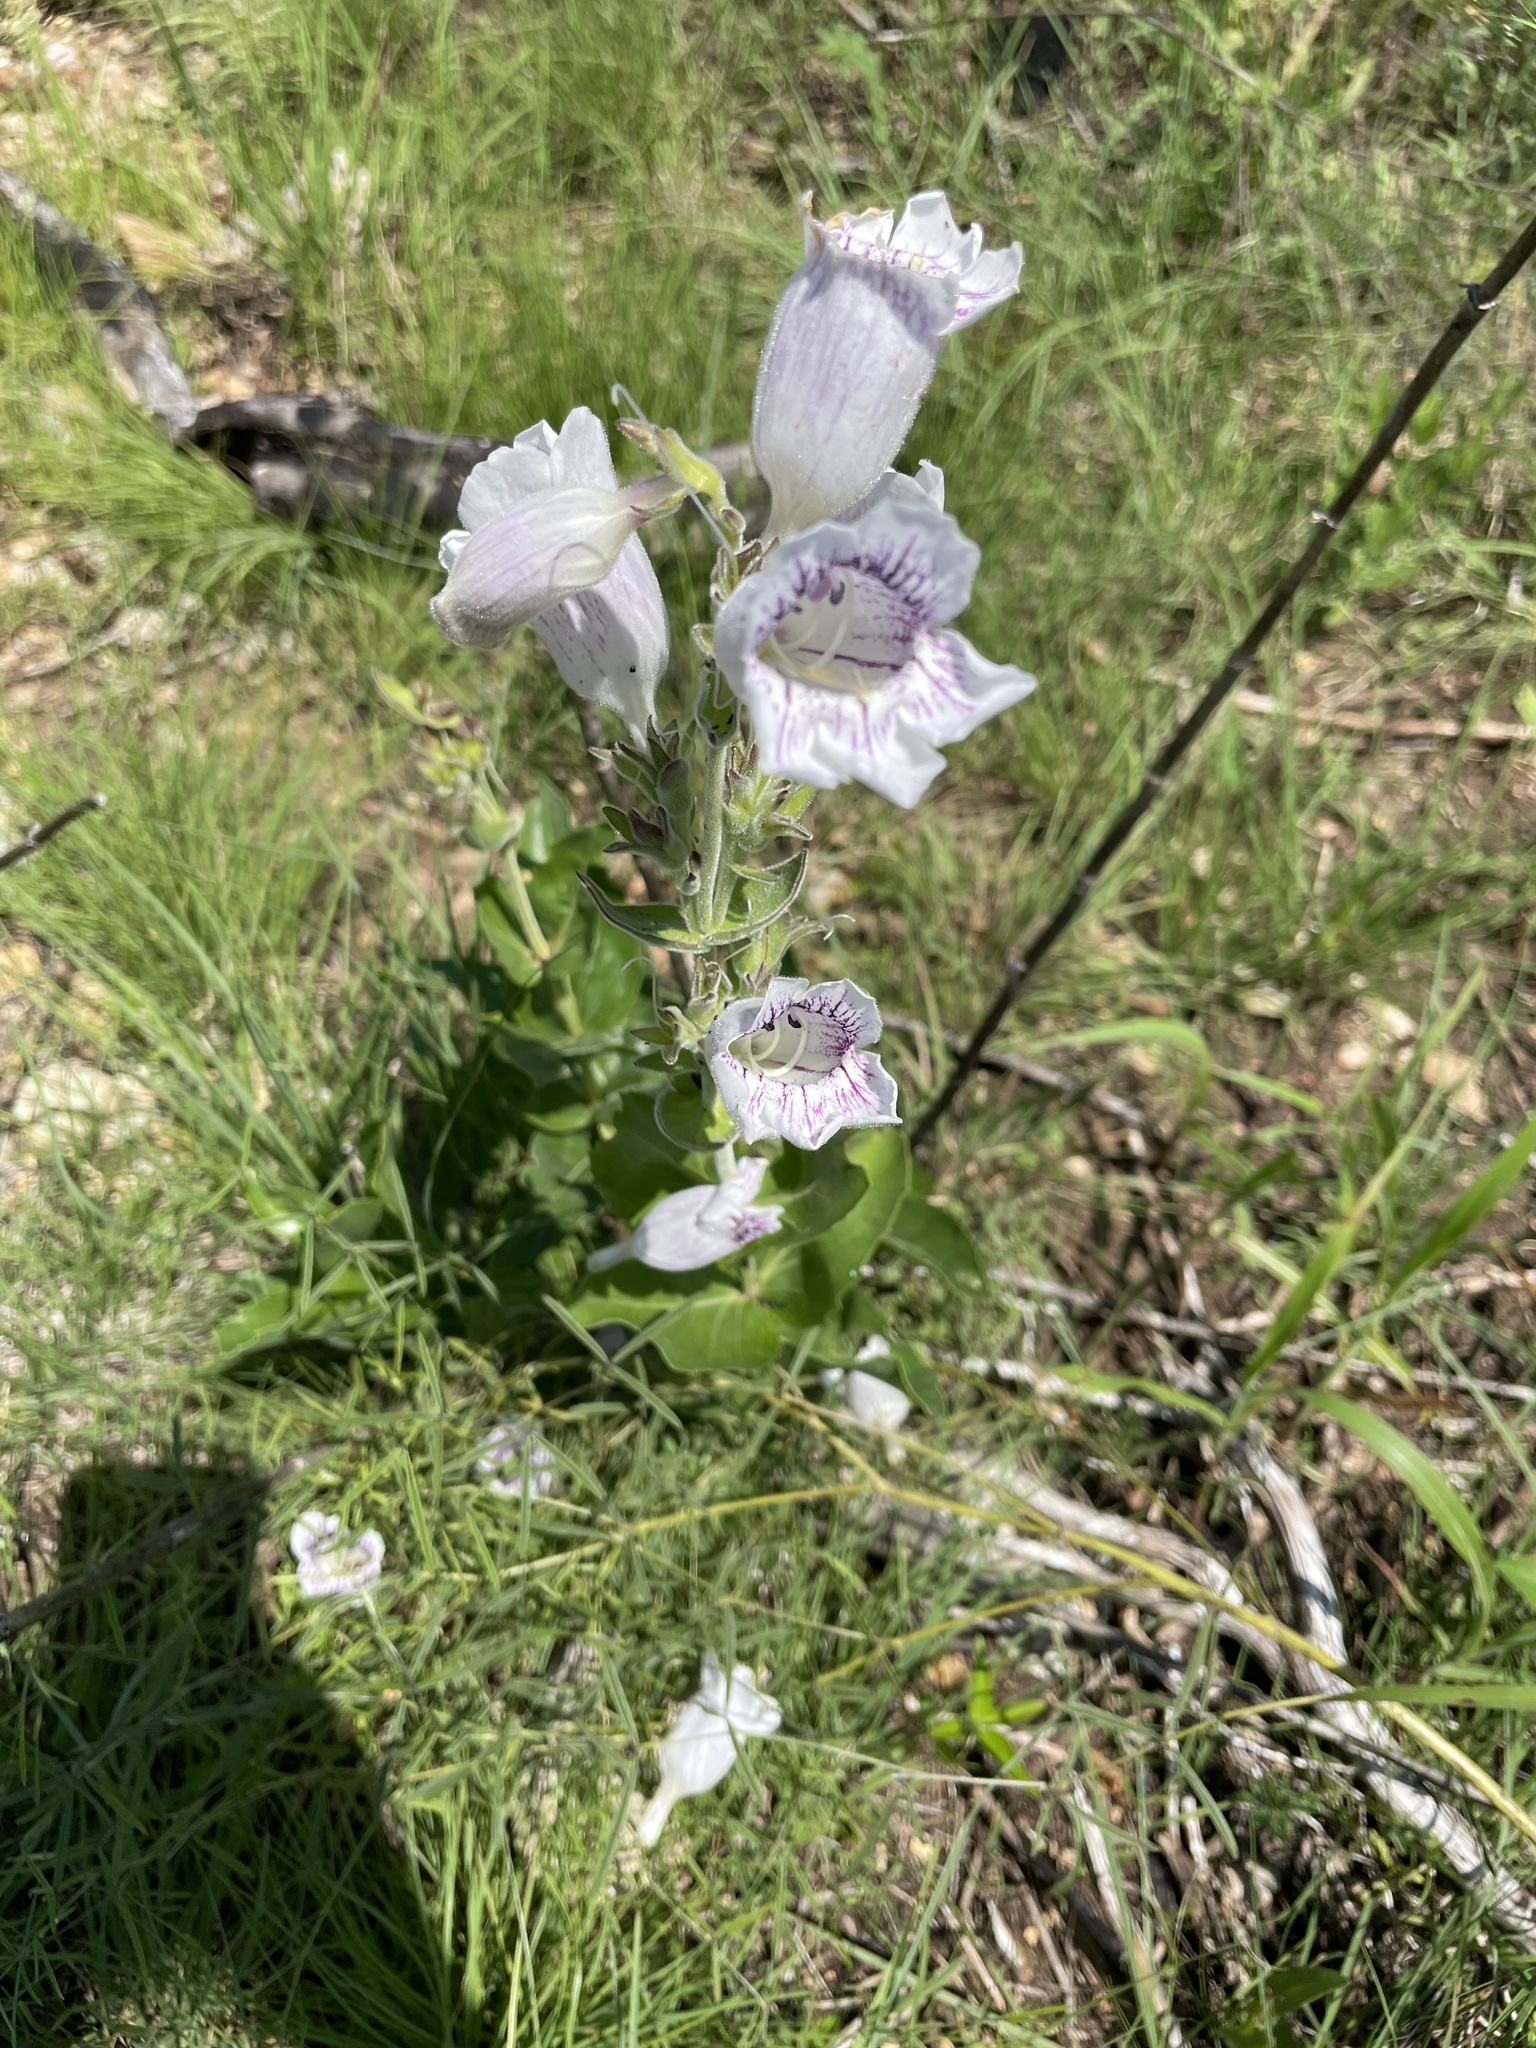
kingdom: Plantae
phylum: Tracheophyta
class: Magnoliopsida
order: Lamiales
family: Plantaginaceae
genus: Penstemon
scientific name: Penstemon cobaea
